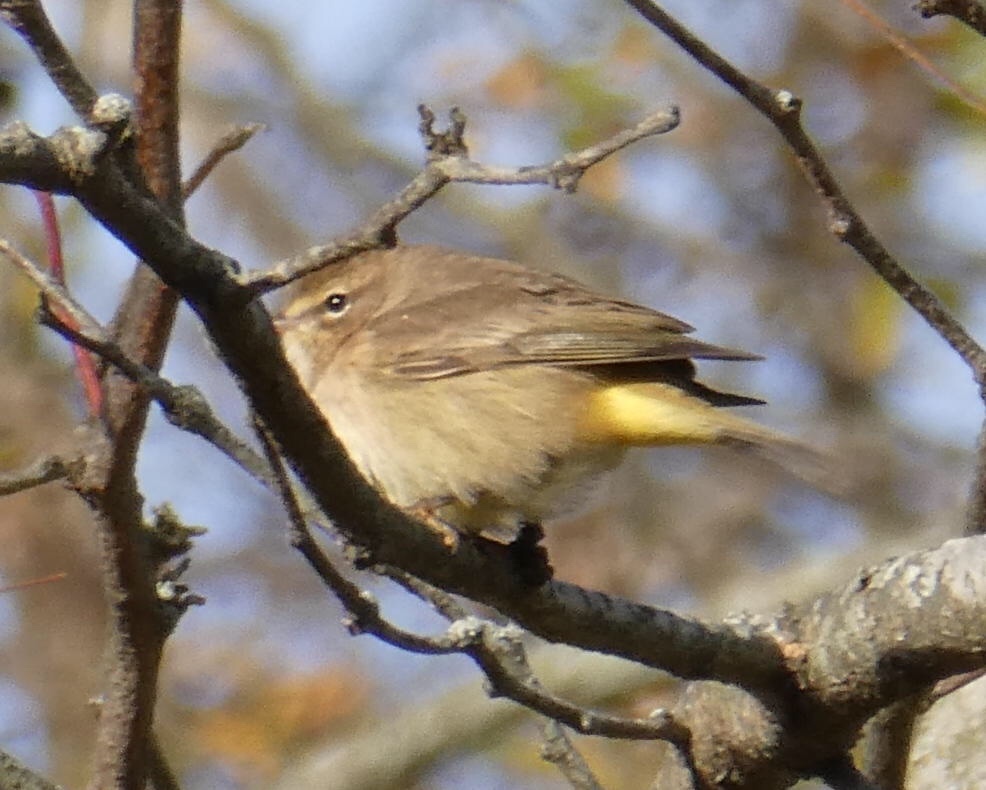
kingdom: Animalia
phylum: Chordata
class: Aves
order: Passeriformes
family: Parulidae
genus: Setophaga
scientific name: Setophaga palmarum
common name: Palm warbler
